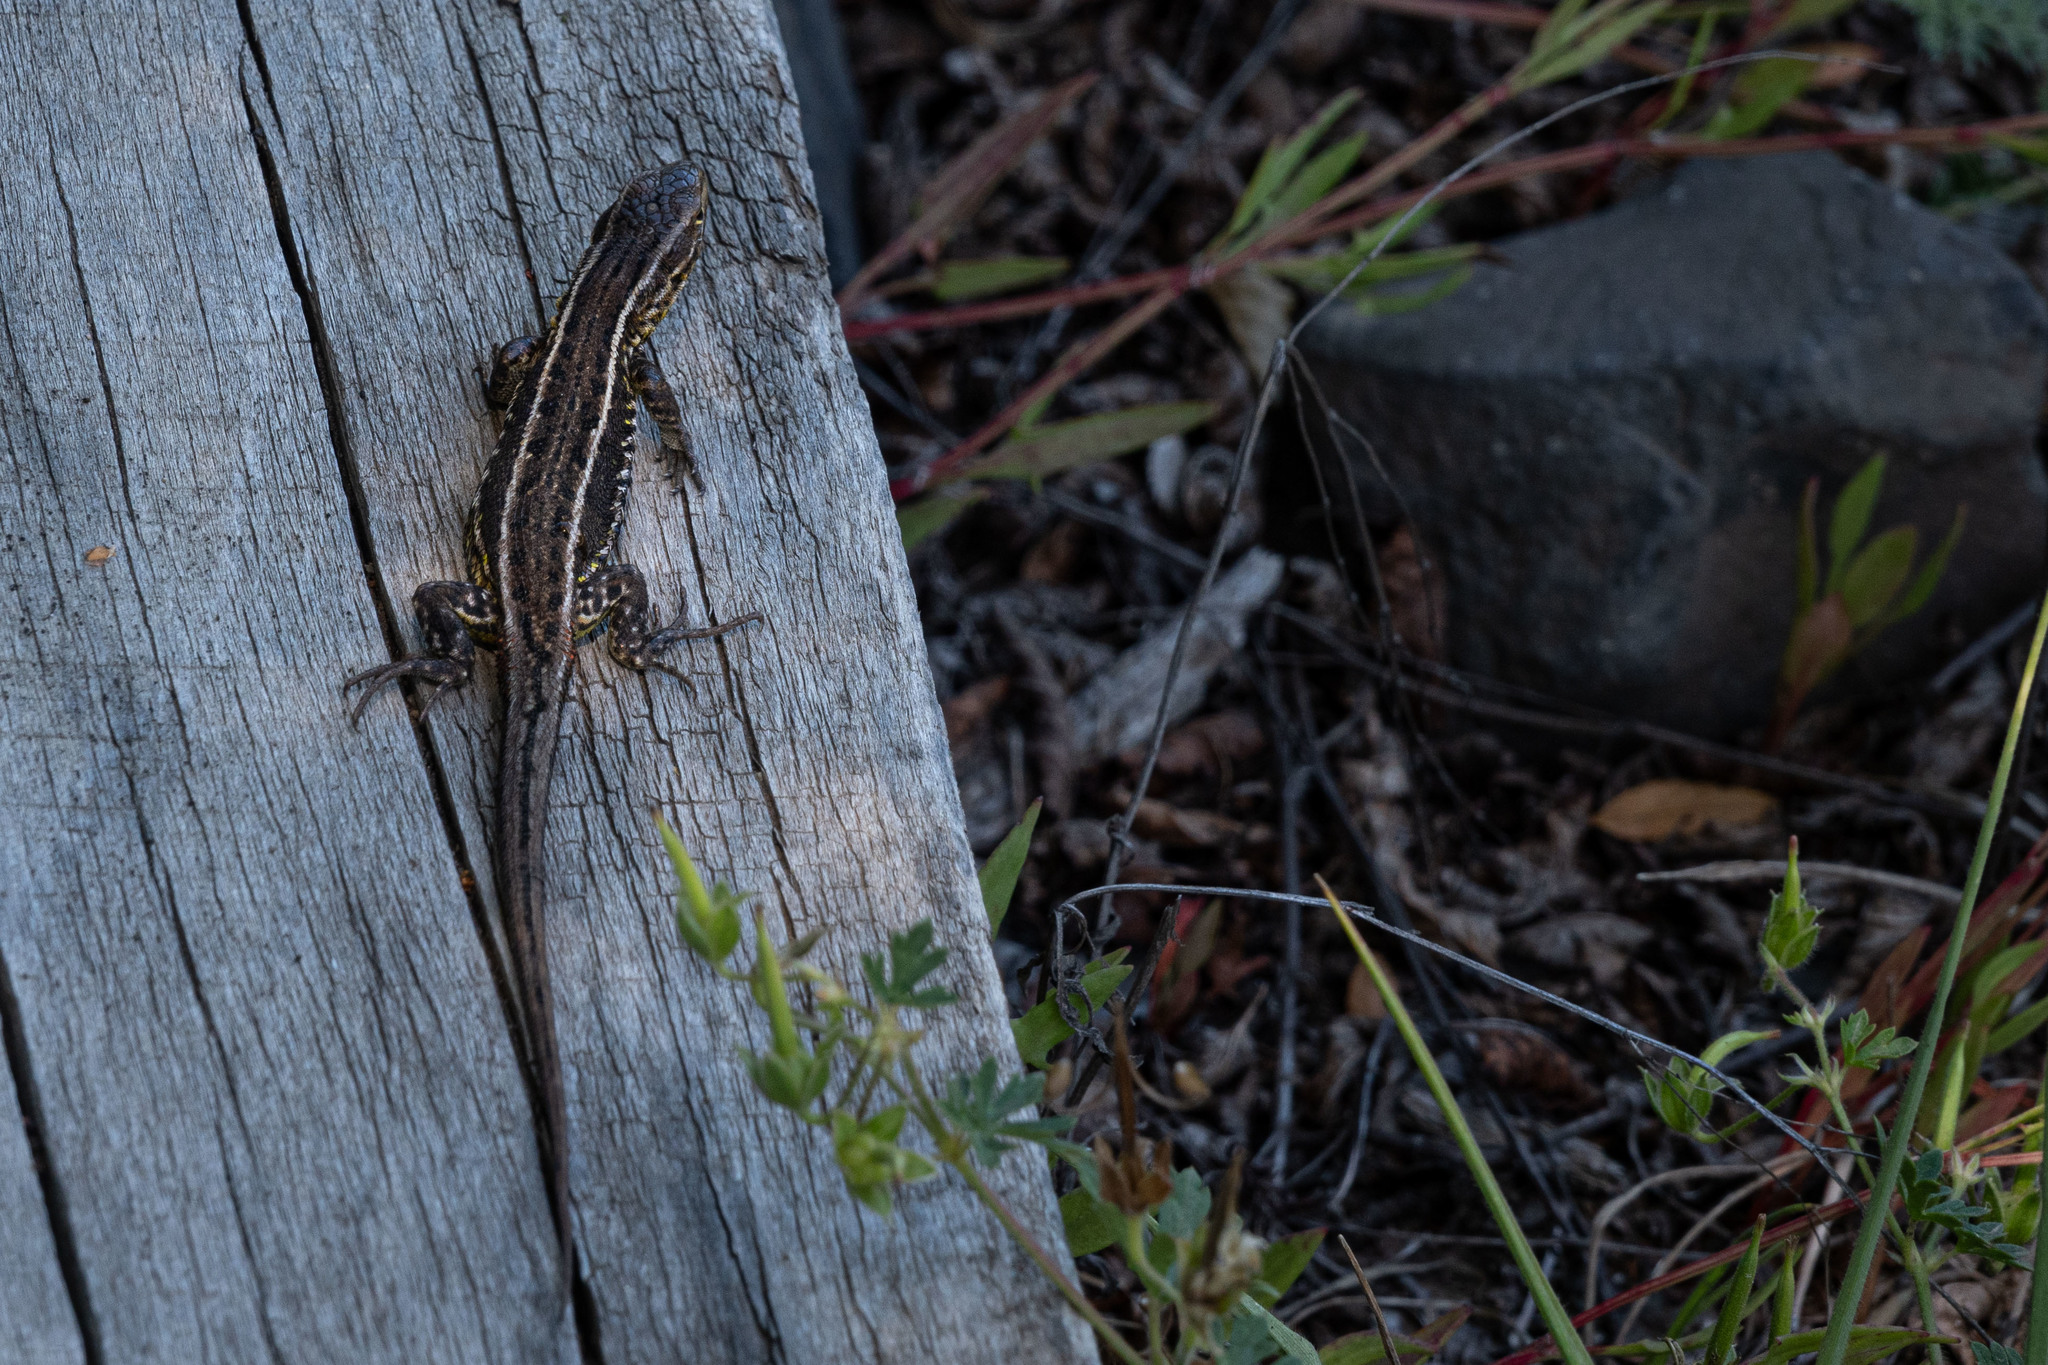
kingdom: Animalia
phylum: Chordata
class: Squamata
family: Liolaemidae
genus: Liolaemus
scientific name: Liolaemus araucaniensis
